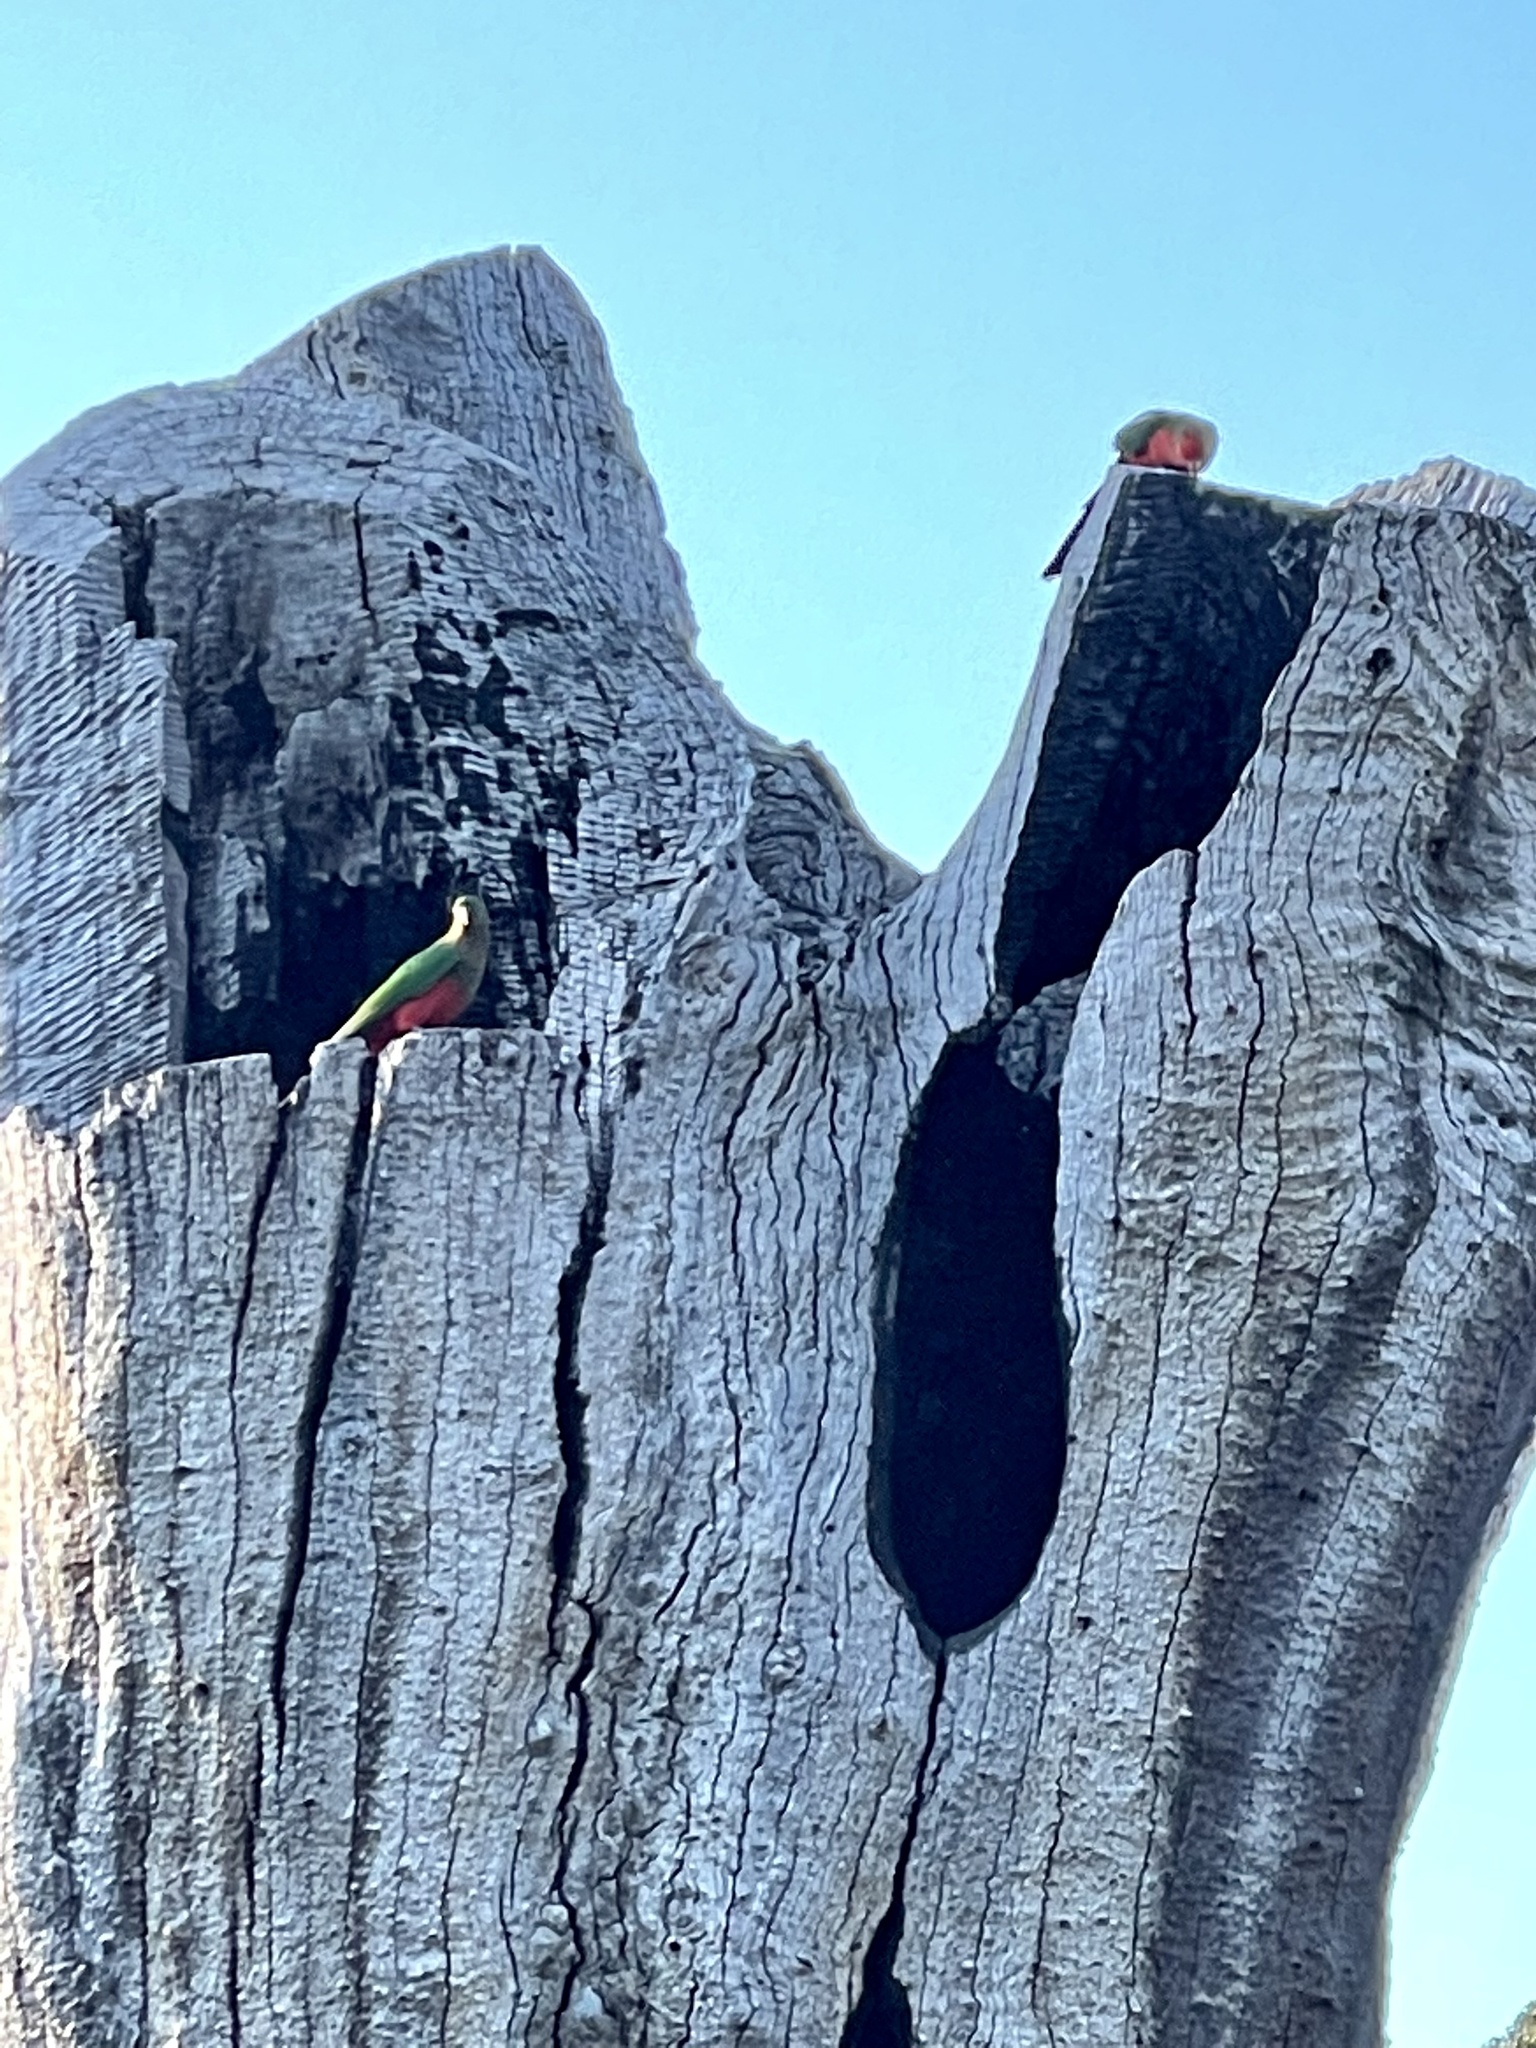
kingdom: Animalia
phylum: Chordata
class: Aves
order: Psittaciformes
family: Psittacidae
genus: Alisterus
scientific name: Alisterus scapularis
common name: Australian king parrot
